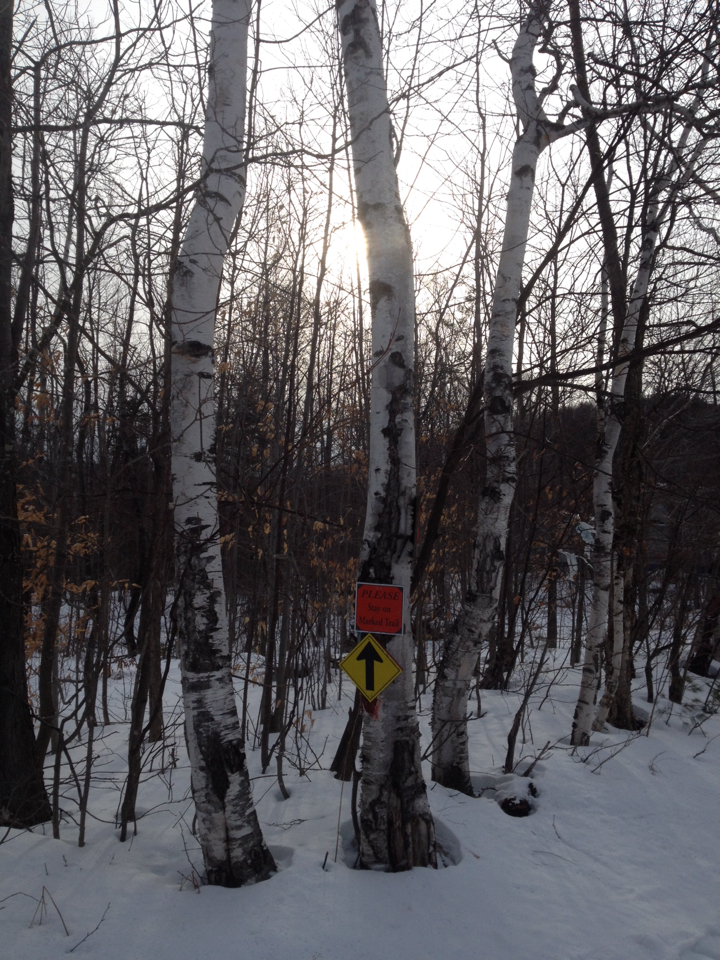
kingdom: Plantae
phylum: Tracheophyta
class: Magnoliopsida
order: Fagales
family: Betulaceae
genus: Betula
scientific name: Betula papyrifera
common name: Paper birch
